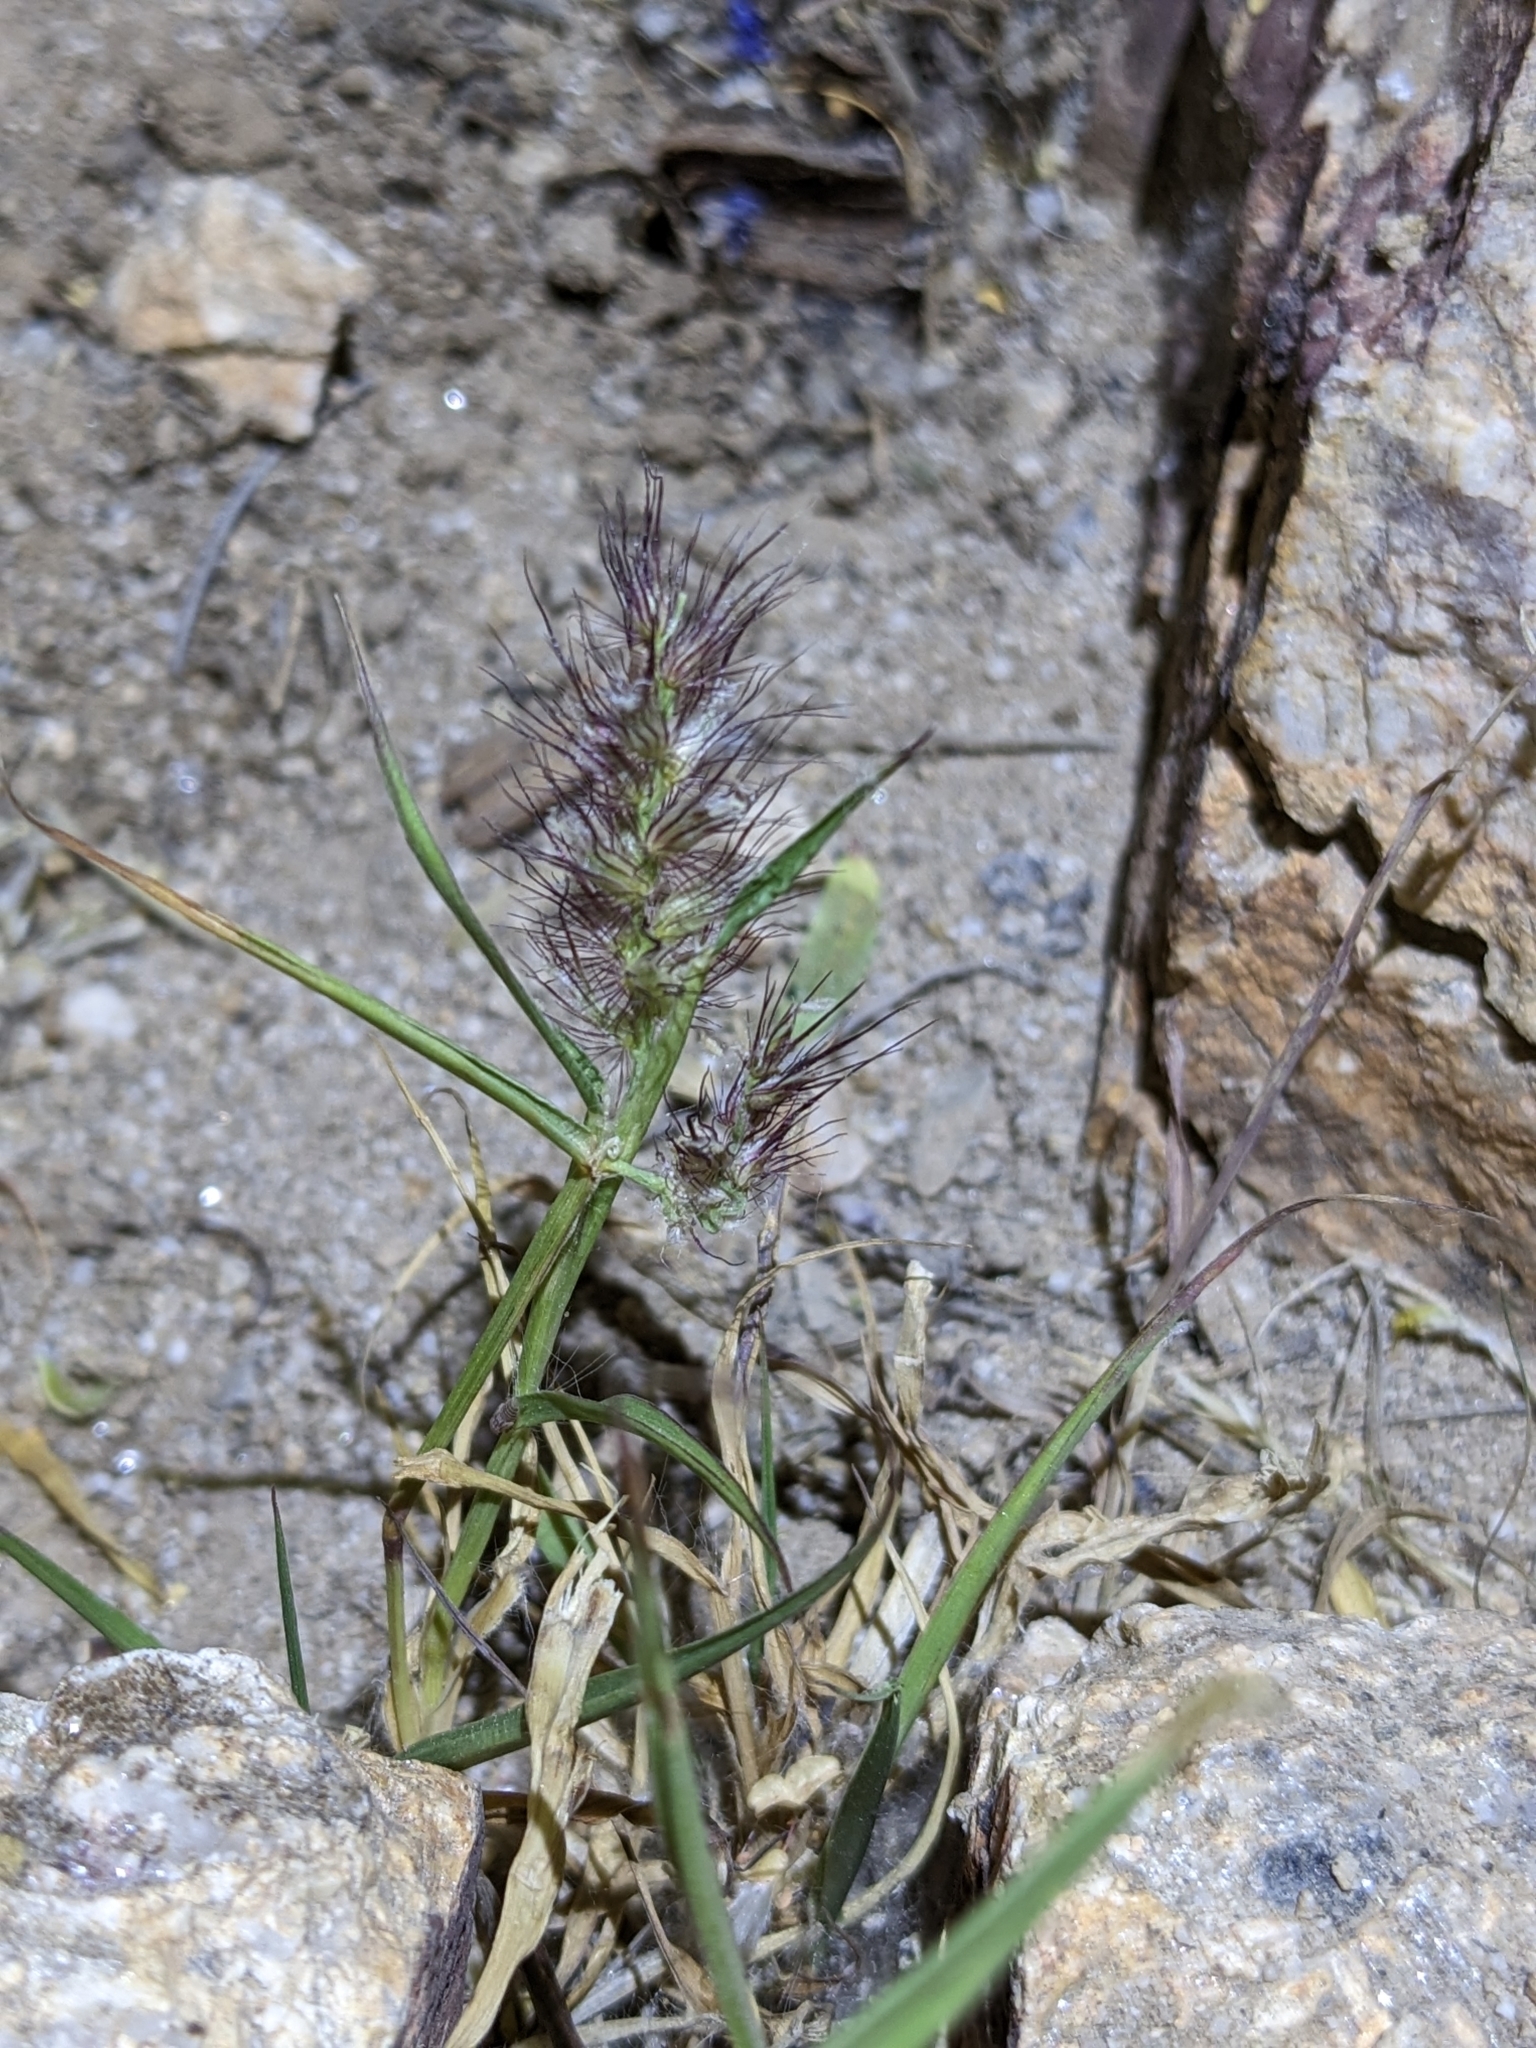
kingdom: Plantae
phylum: Tracheophyta
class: Liliopsida
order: Poales
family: Poaceae
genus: Cenchrus
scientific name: Cenchrus ciliaris
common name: Buffelgrass
